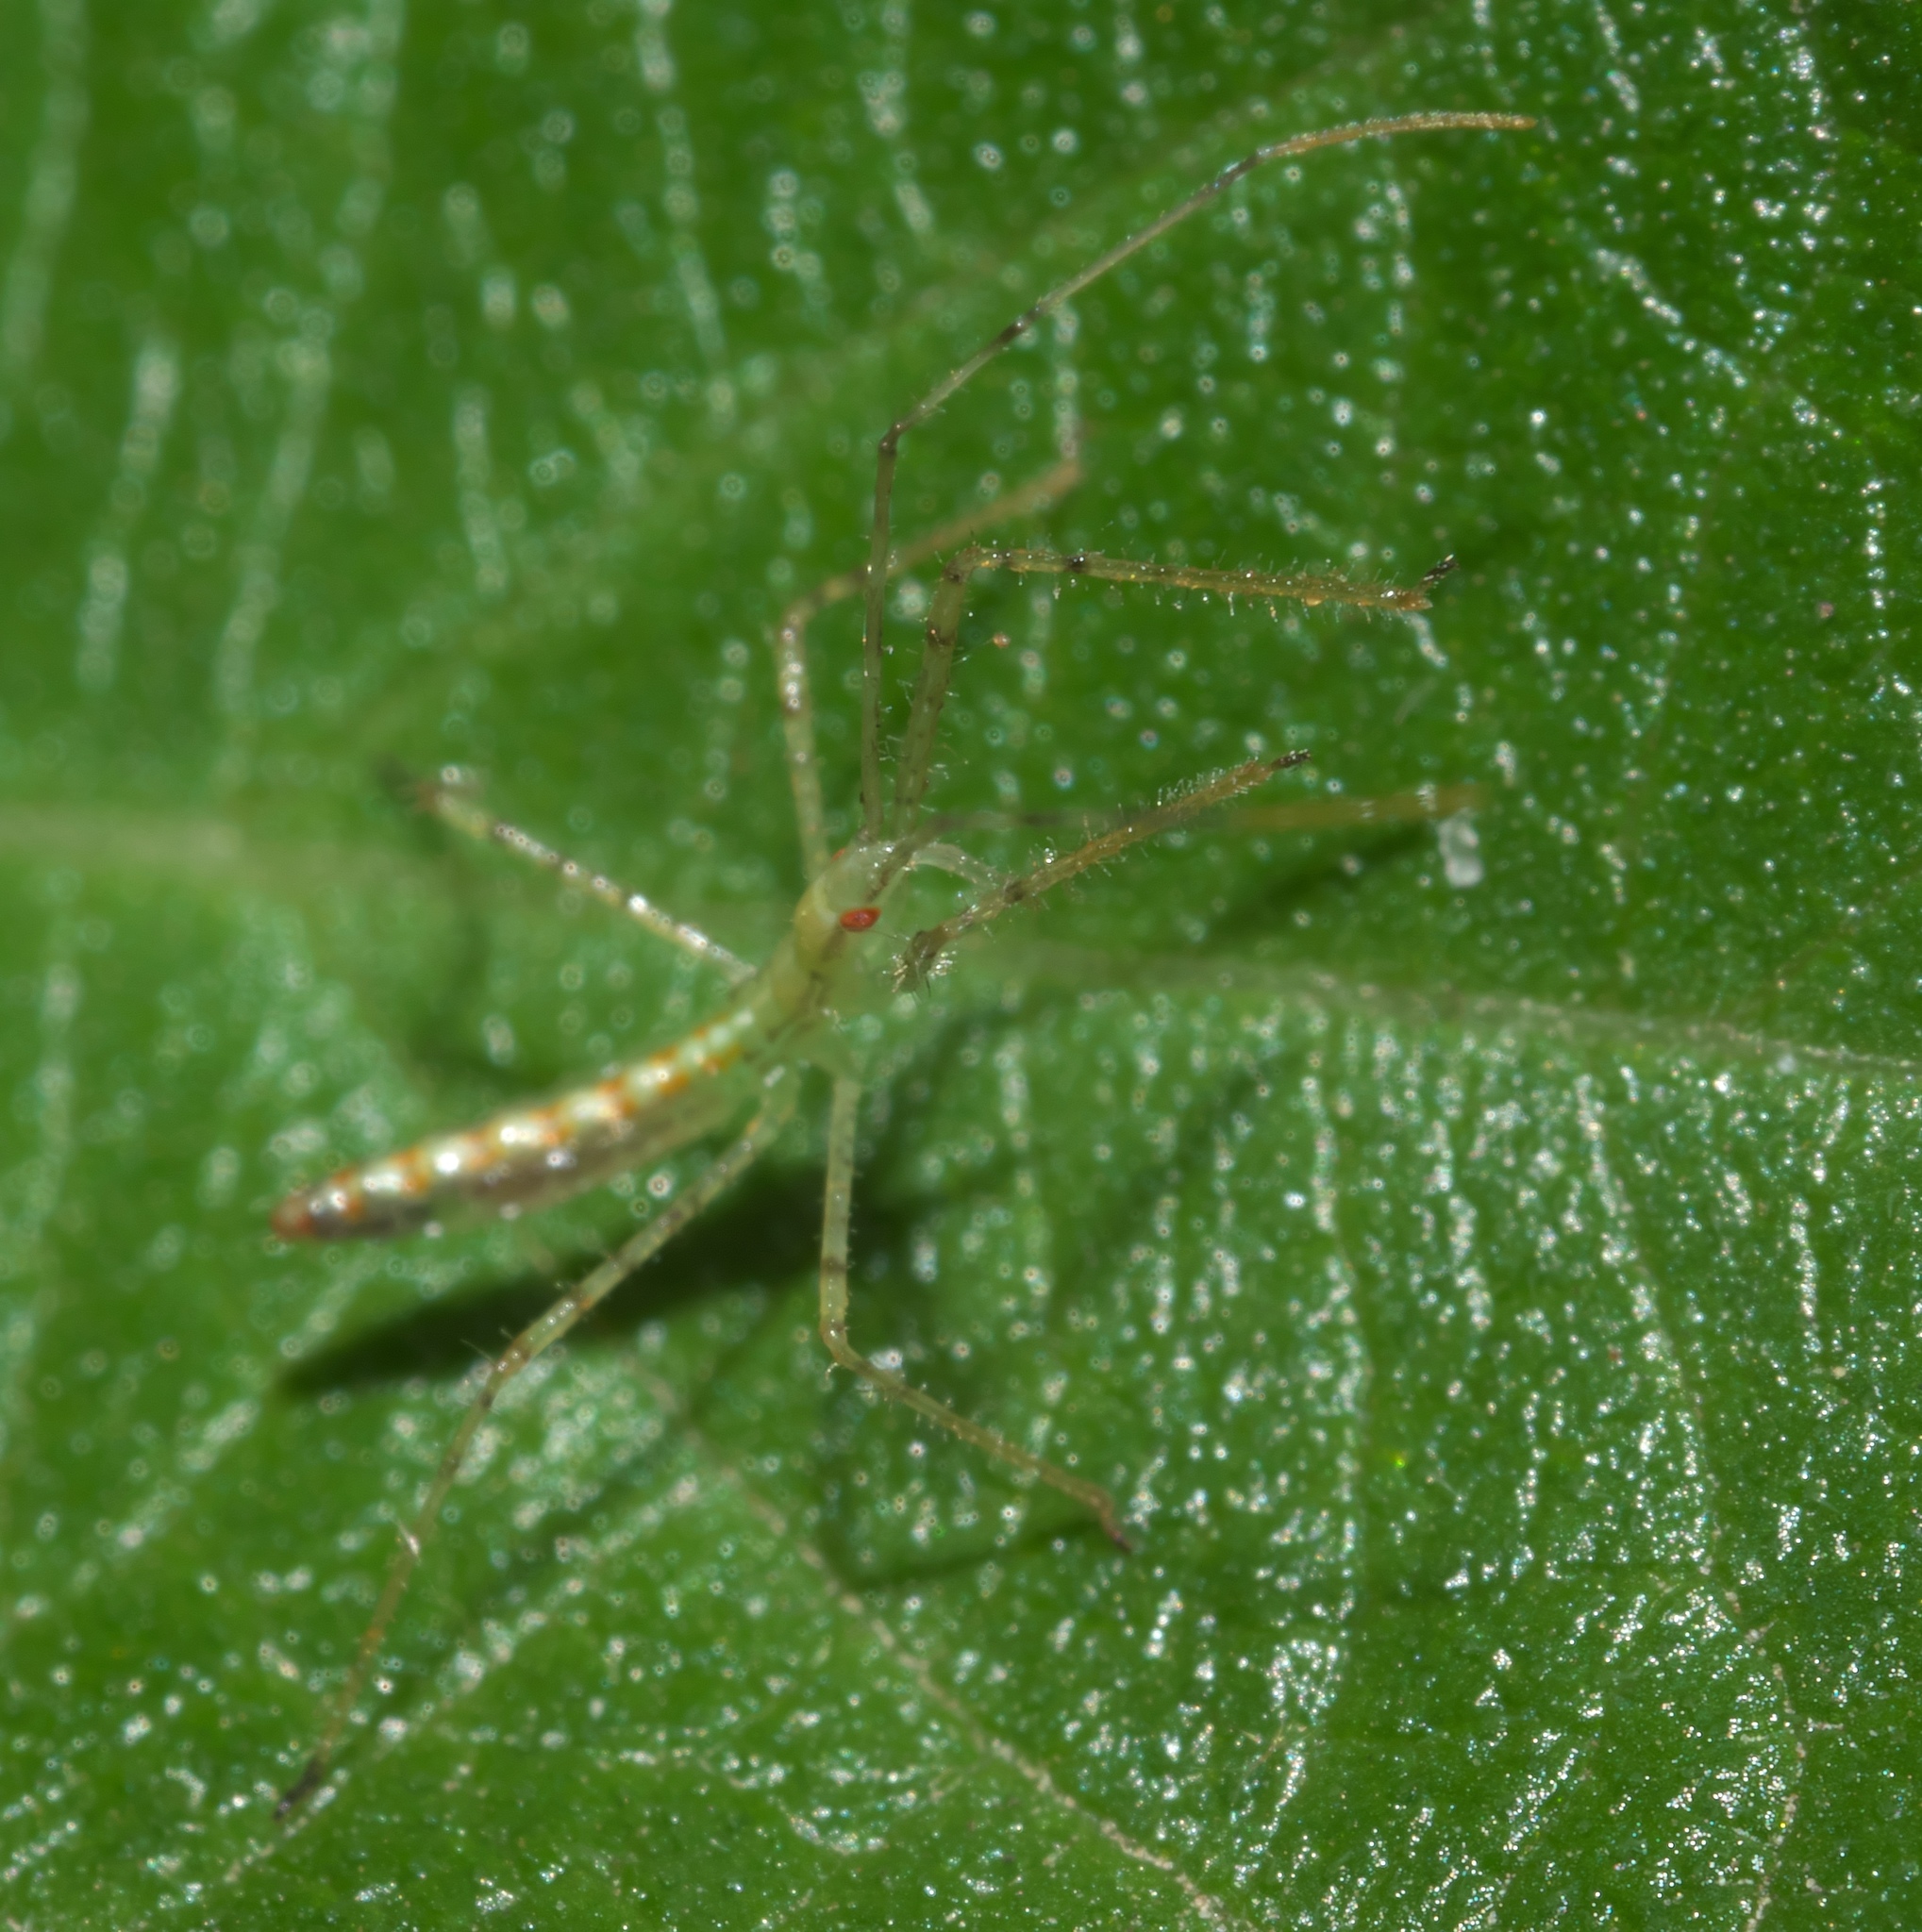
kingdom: Animalia
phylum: Arthropoda
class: Insecta
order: Hemiptera
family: Reduviidae
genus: Zelus
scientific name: Zelus luridus
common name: Pale green assassin bug
